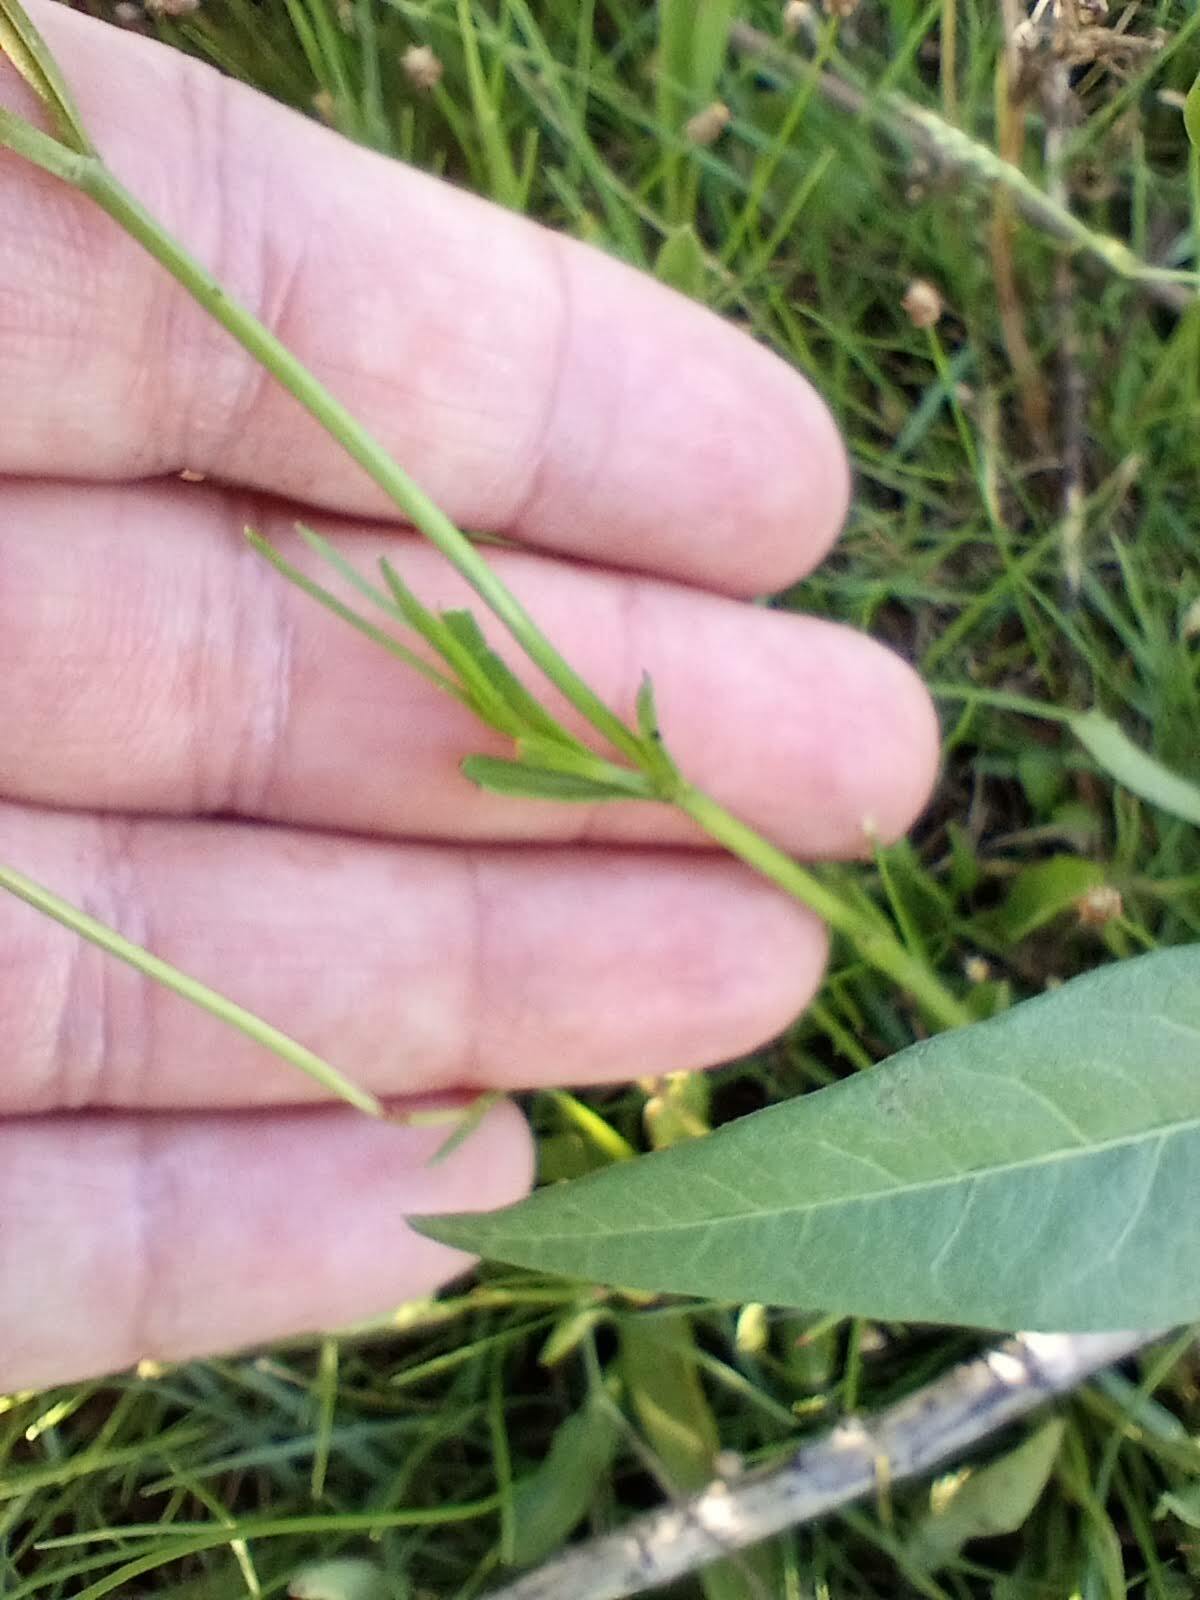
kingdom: Plantae
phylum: Tracheophyta
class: Magnoliopsida
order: Gentianales
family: Gentianaceae
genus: Sabatia
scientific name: Sabatia stellaris
